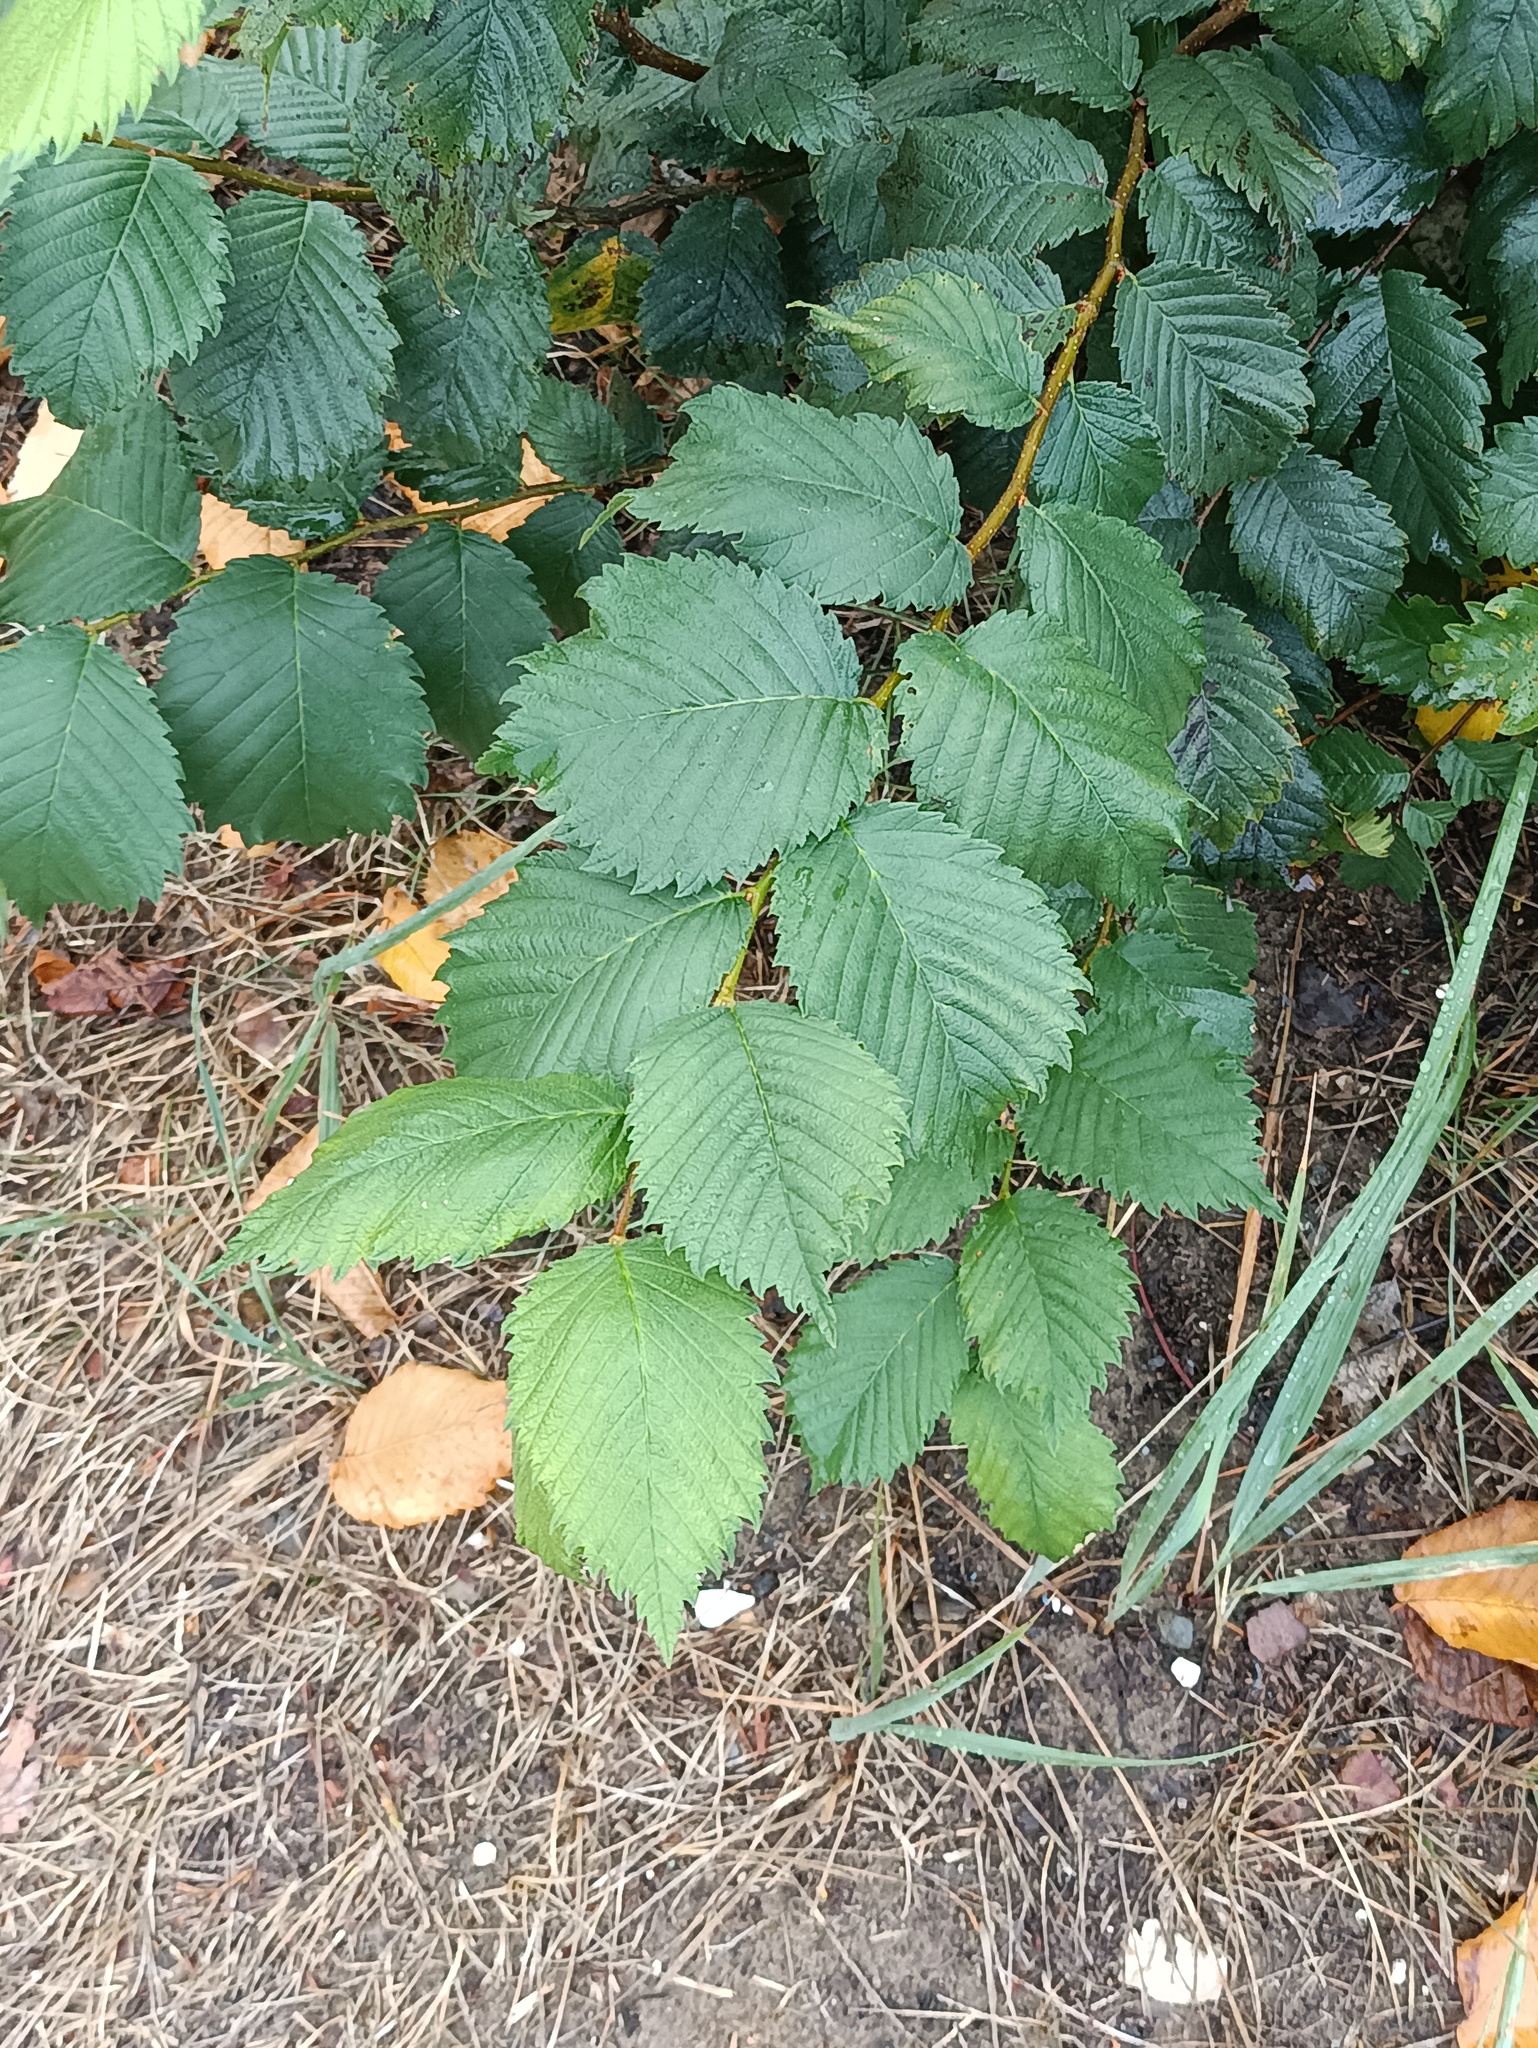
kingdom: Plantae
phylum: Tracheophyta
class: Magnoliopsida
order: Rosales
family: Ulmaceae
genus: Ulmus
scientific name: Ulmus laevis
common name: European white-elm
